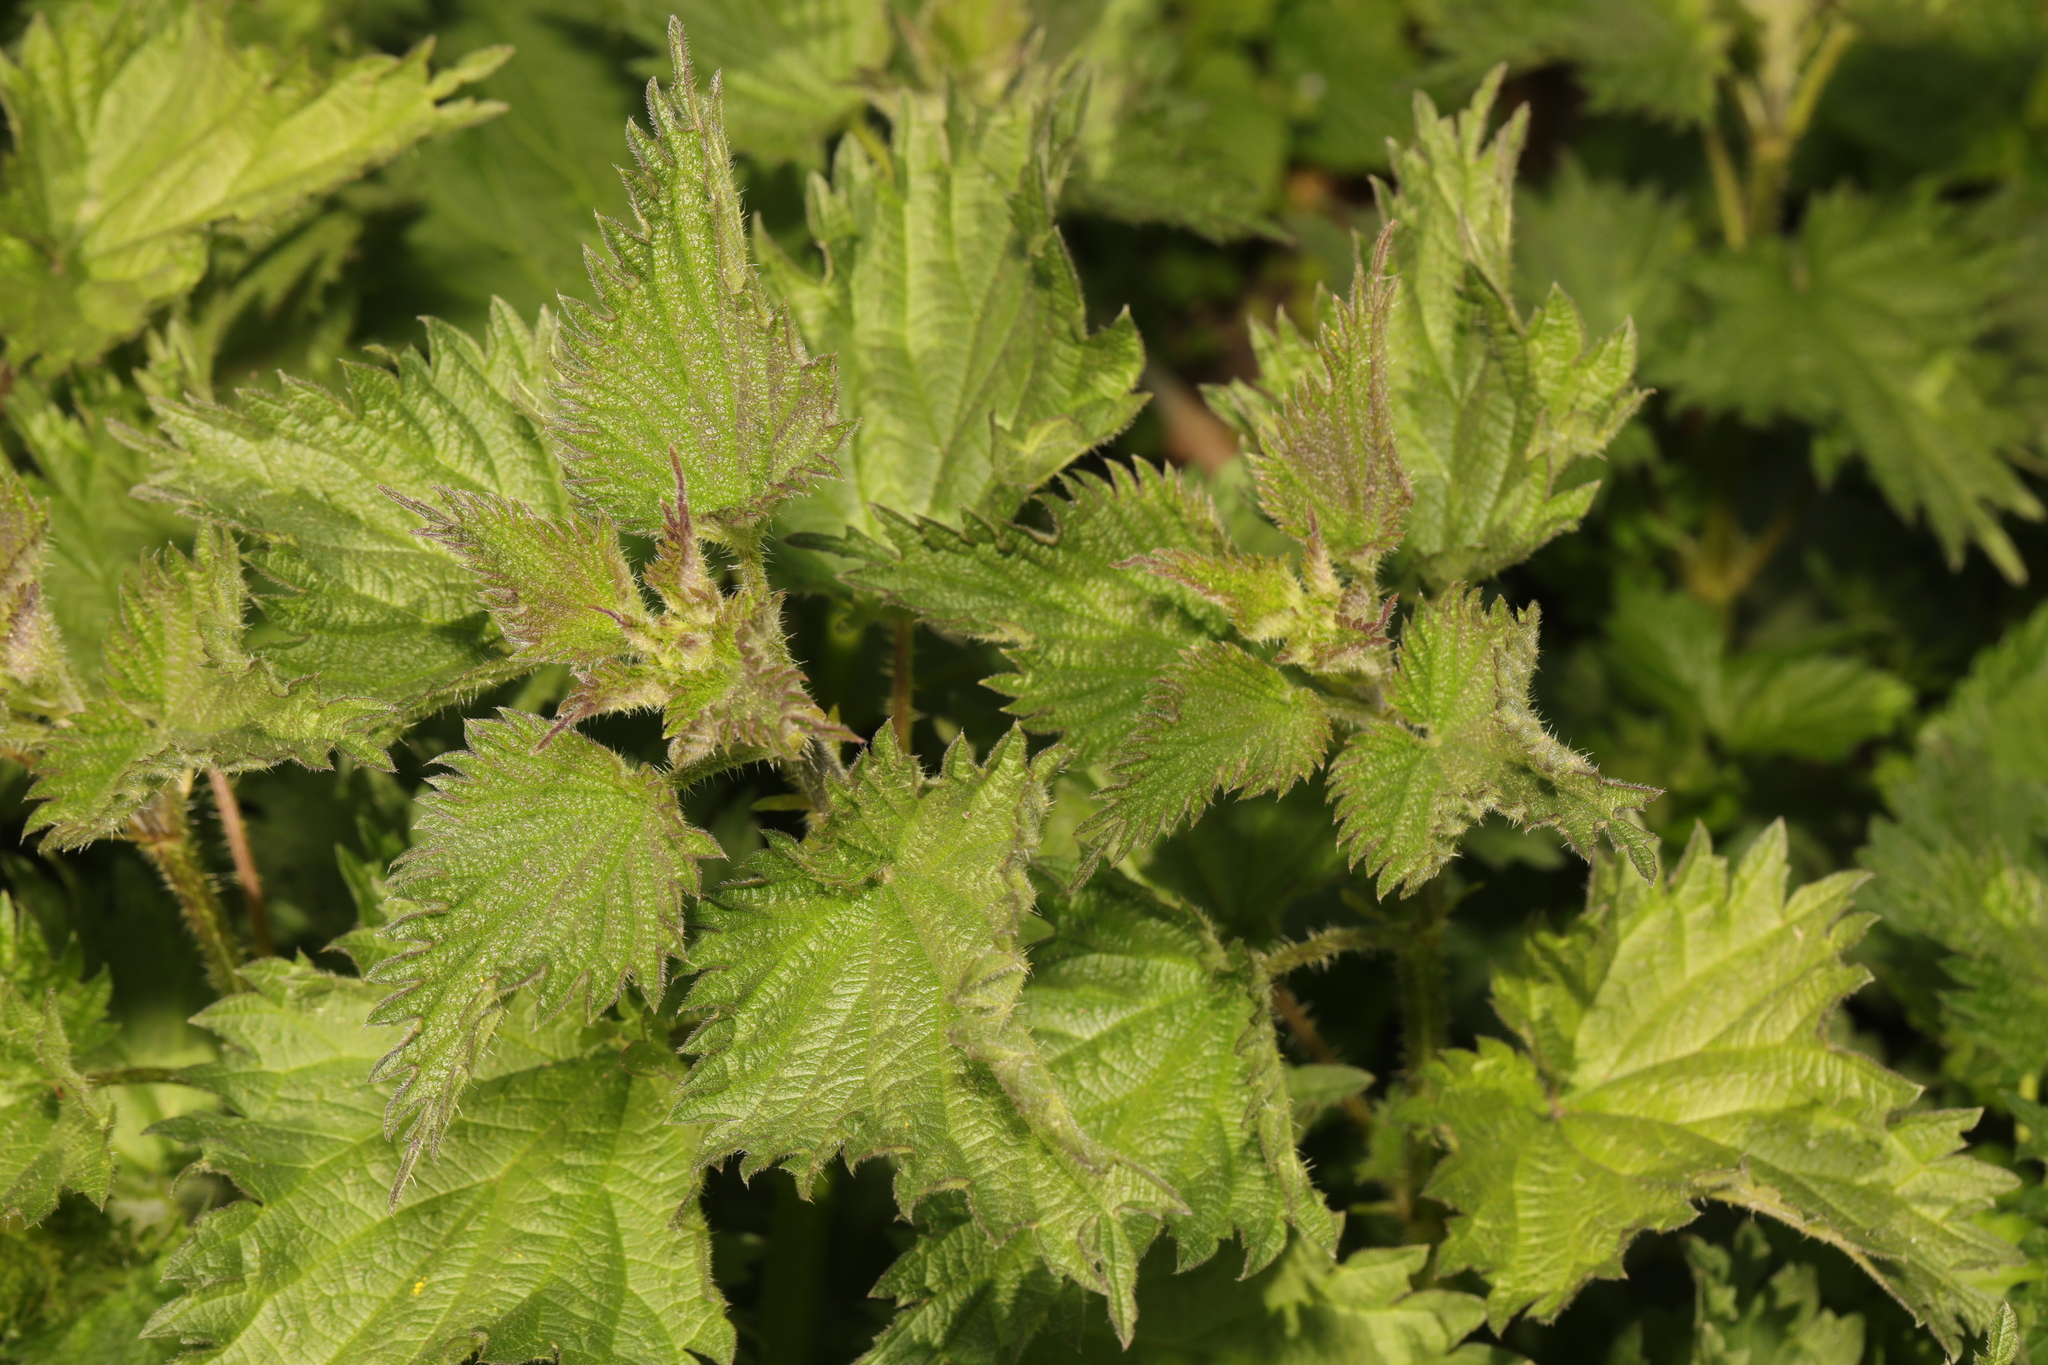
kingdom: Plantae
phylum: Tracheophyta
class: Magnoliopsida
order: Rosales
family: Urticaceae
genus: Urtica
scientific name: Urtica dioica
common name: Common nettle
